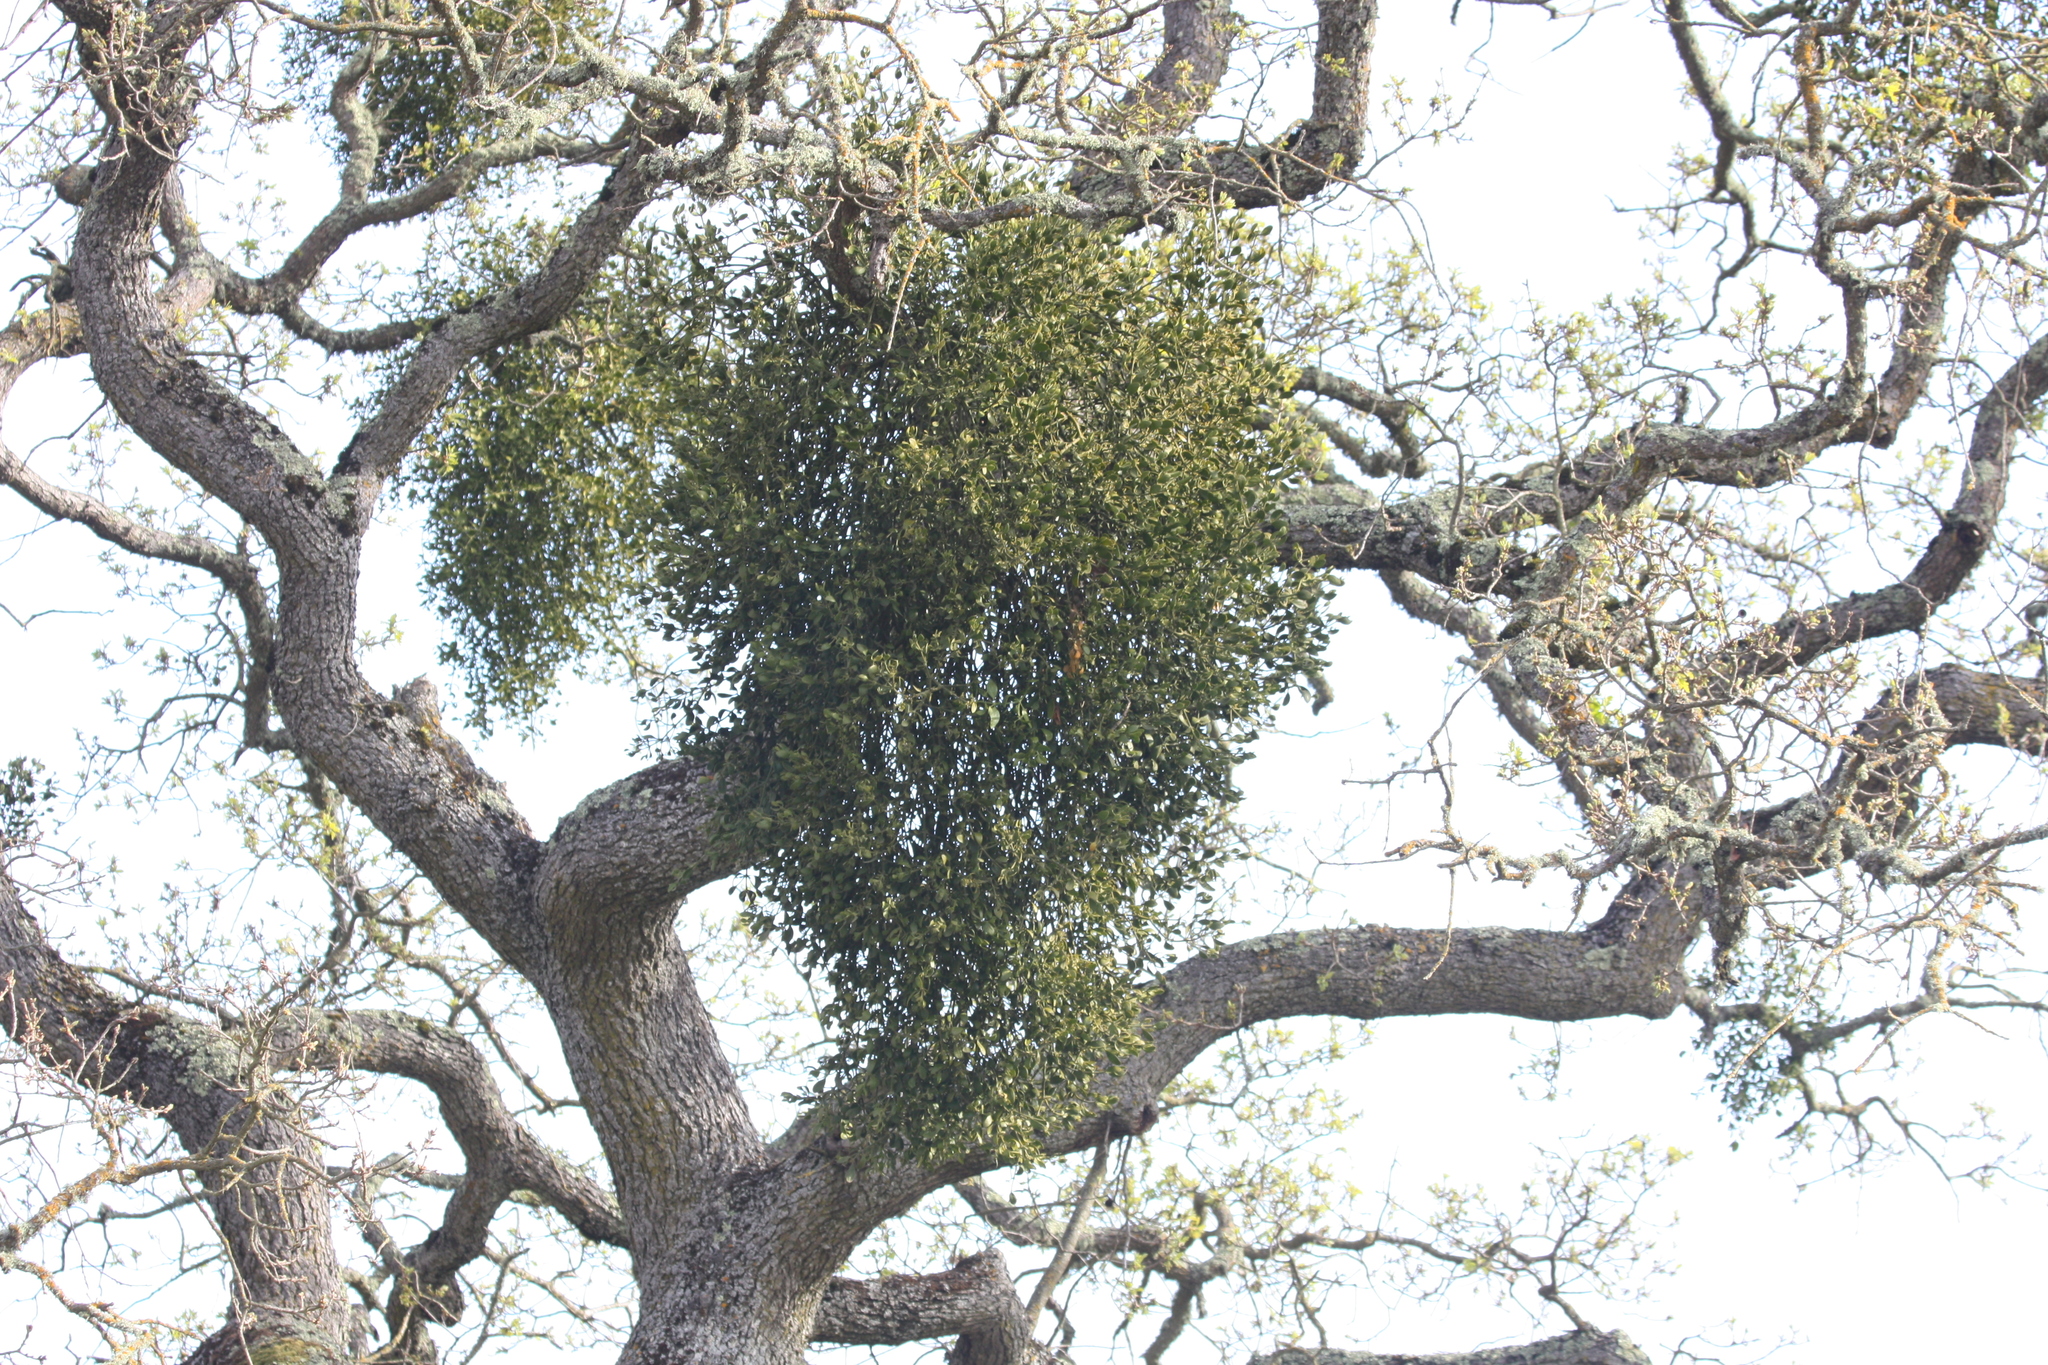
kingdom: Plantae
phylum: Tracheophyta
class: Magnoliopsida
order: Santalales
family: Viscaceae
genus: Phoradendron
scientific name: Phoradendron leucarpum
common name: Pacific mistletoe
